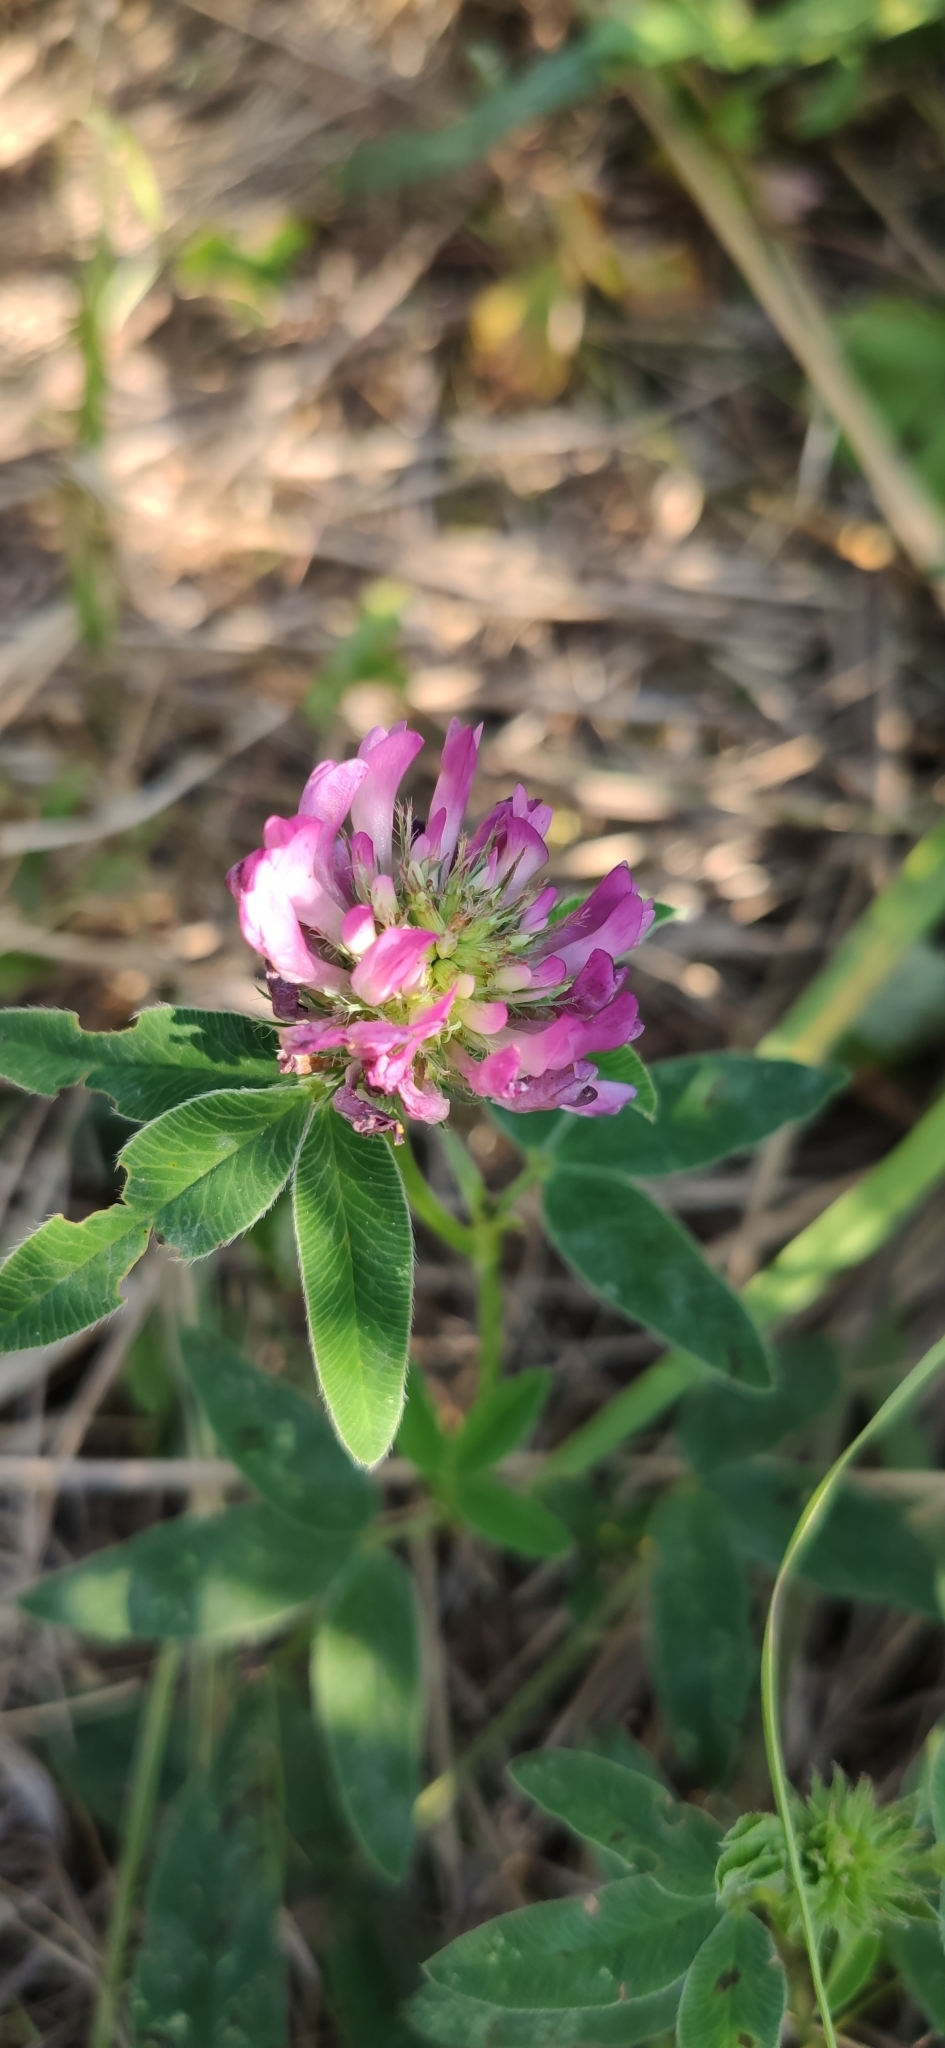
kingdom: Plantae
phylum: Tracheophyta
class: Magnoliopsida
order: Fabales
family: Fabaceae
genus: Trifolium
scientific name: Trifolium medium
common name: Zigzag clover
